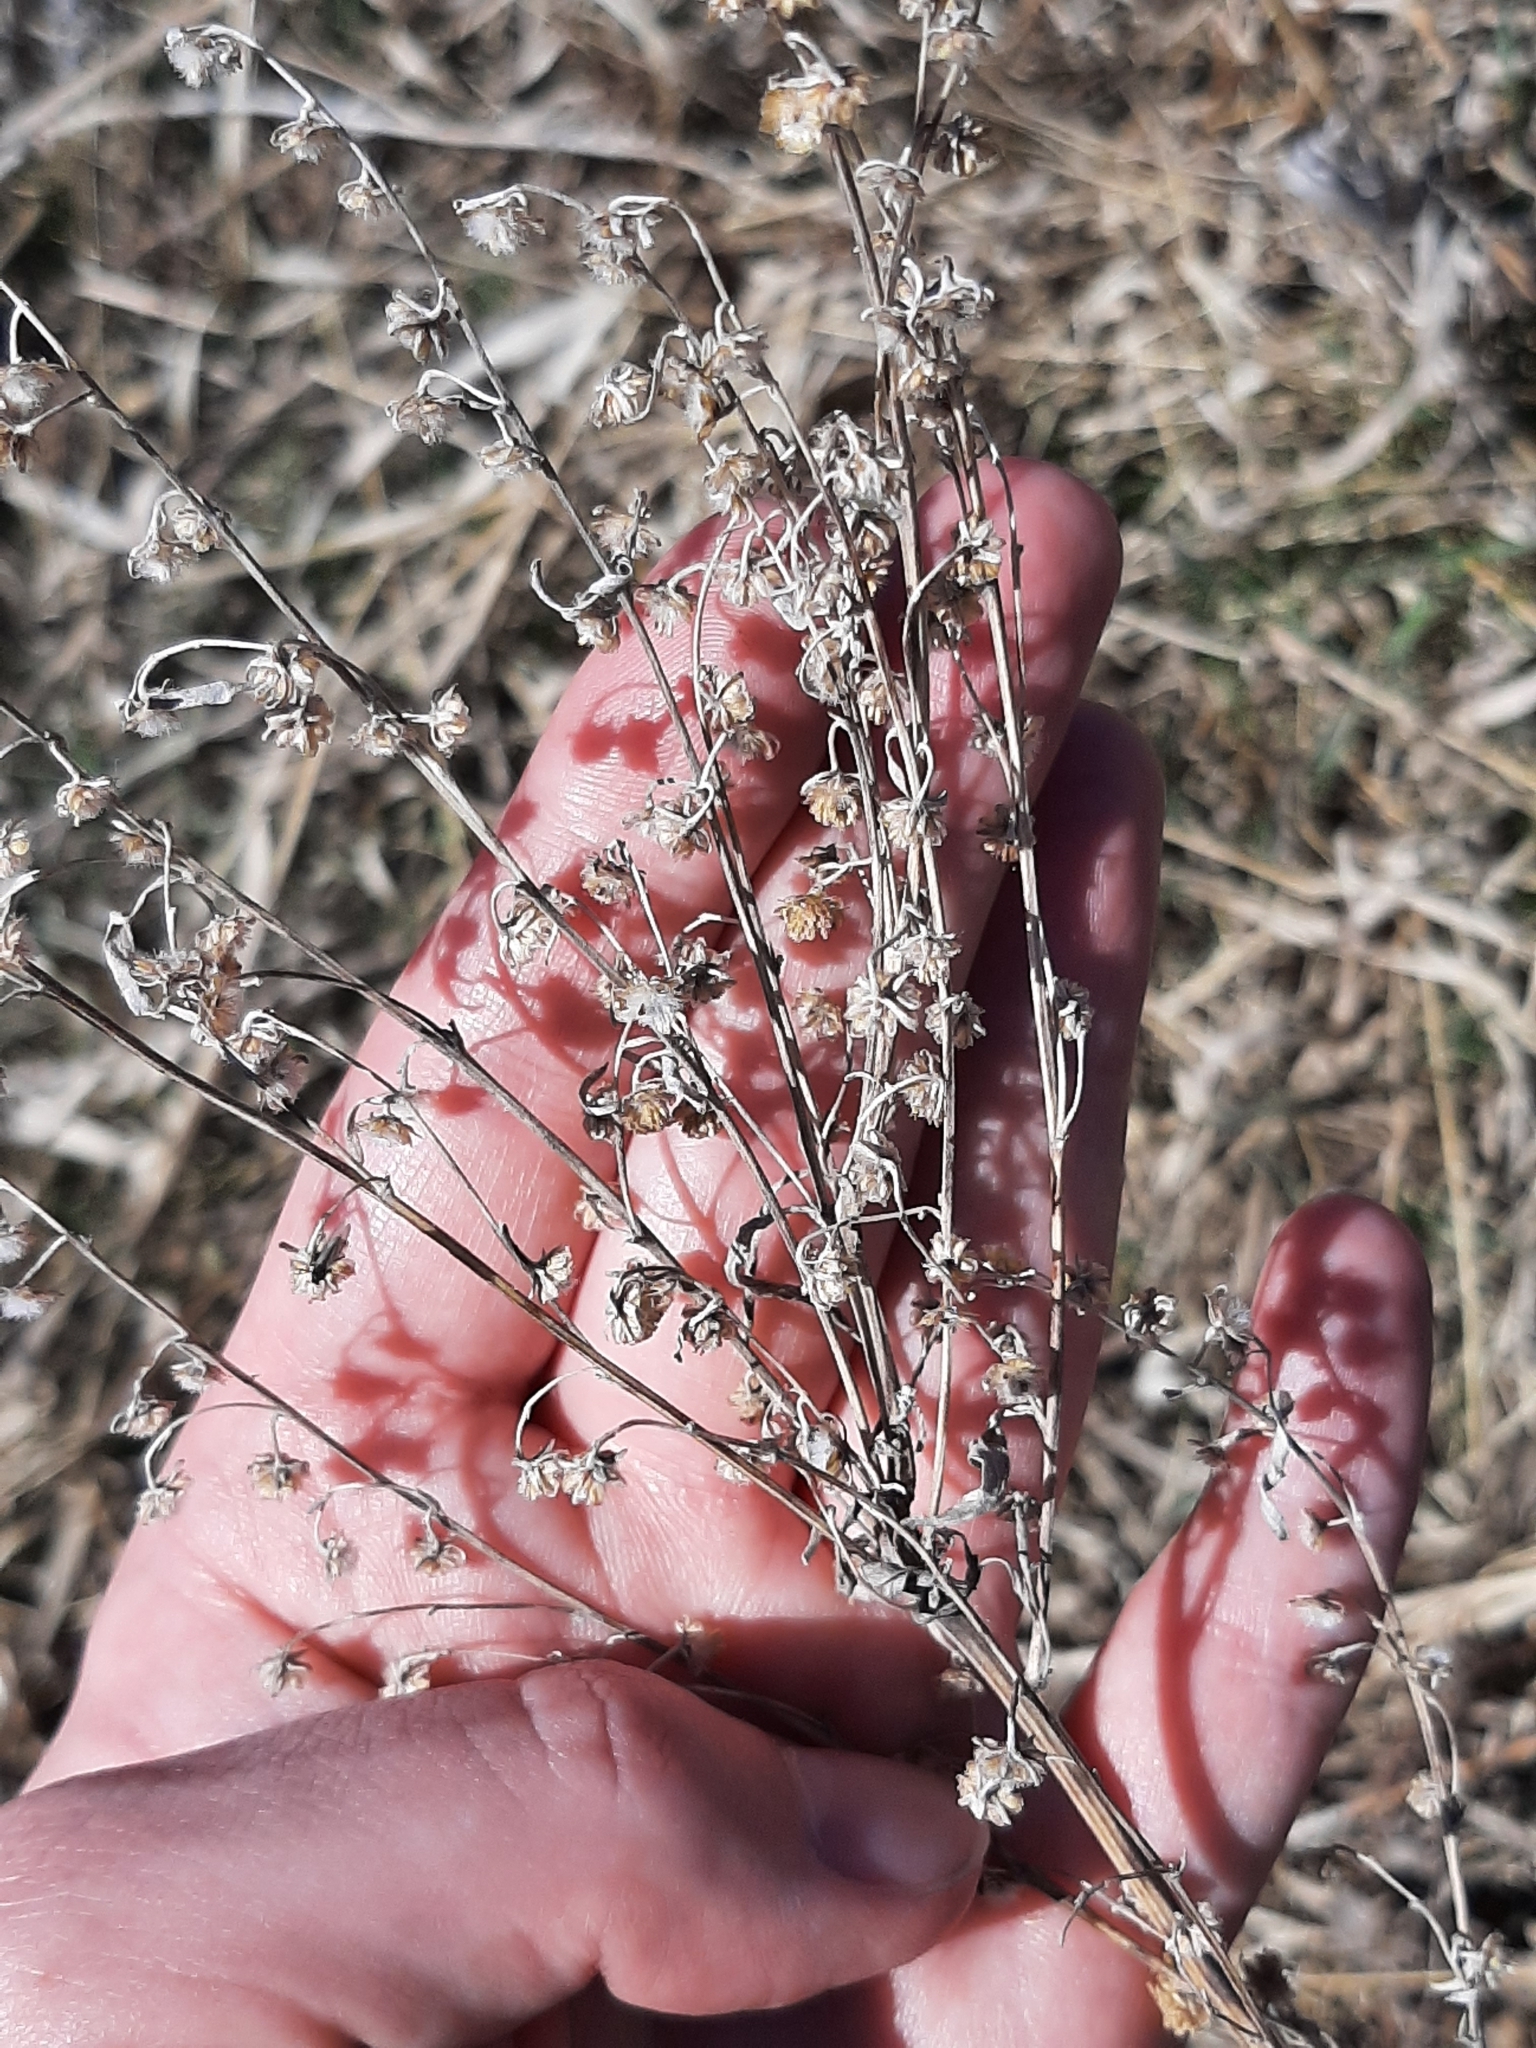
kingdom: Plantae
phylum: Tracheophyta
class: Magnoliopsida
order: Asterales
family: Asteraceae
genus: Artemisia
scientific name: Artemisia absinthium
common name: Wormwood
